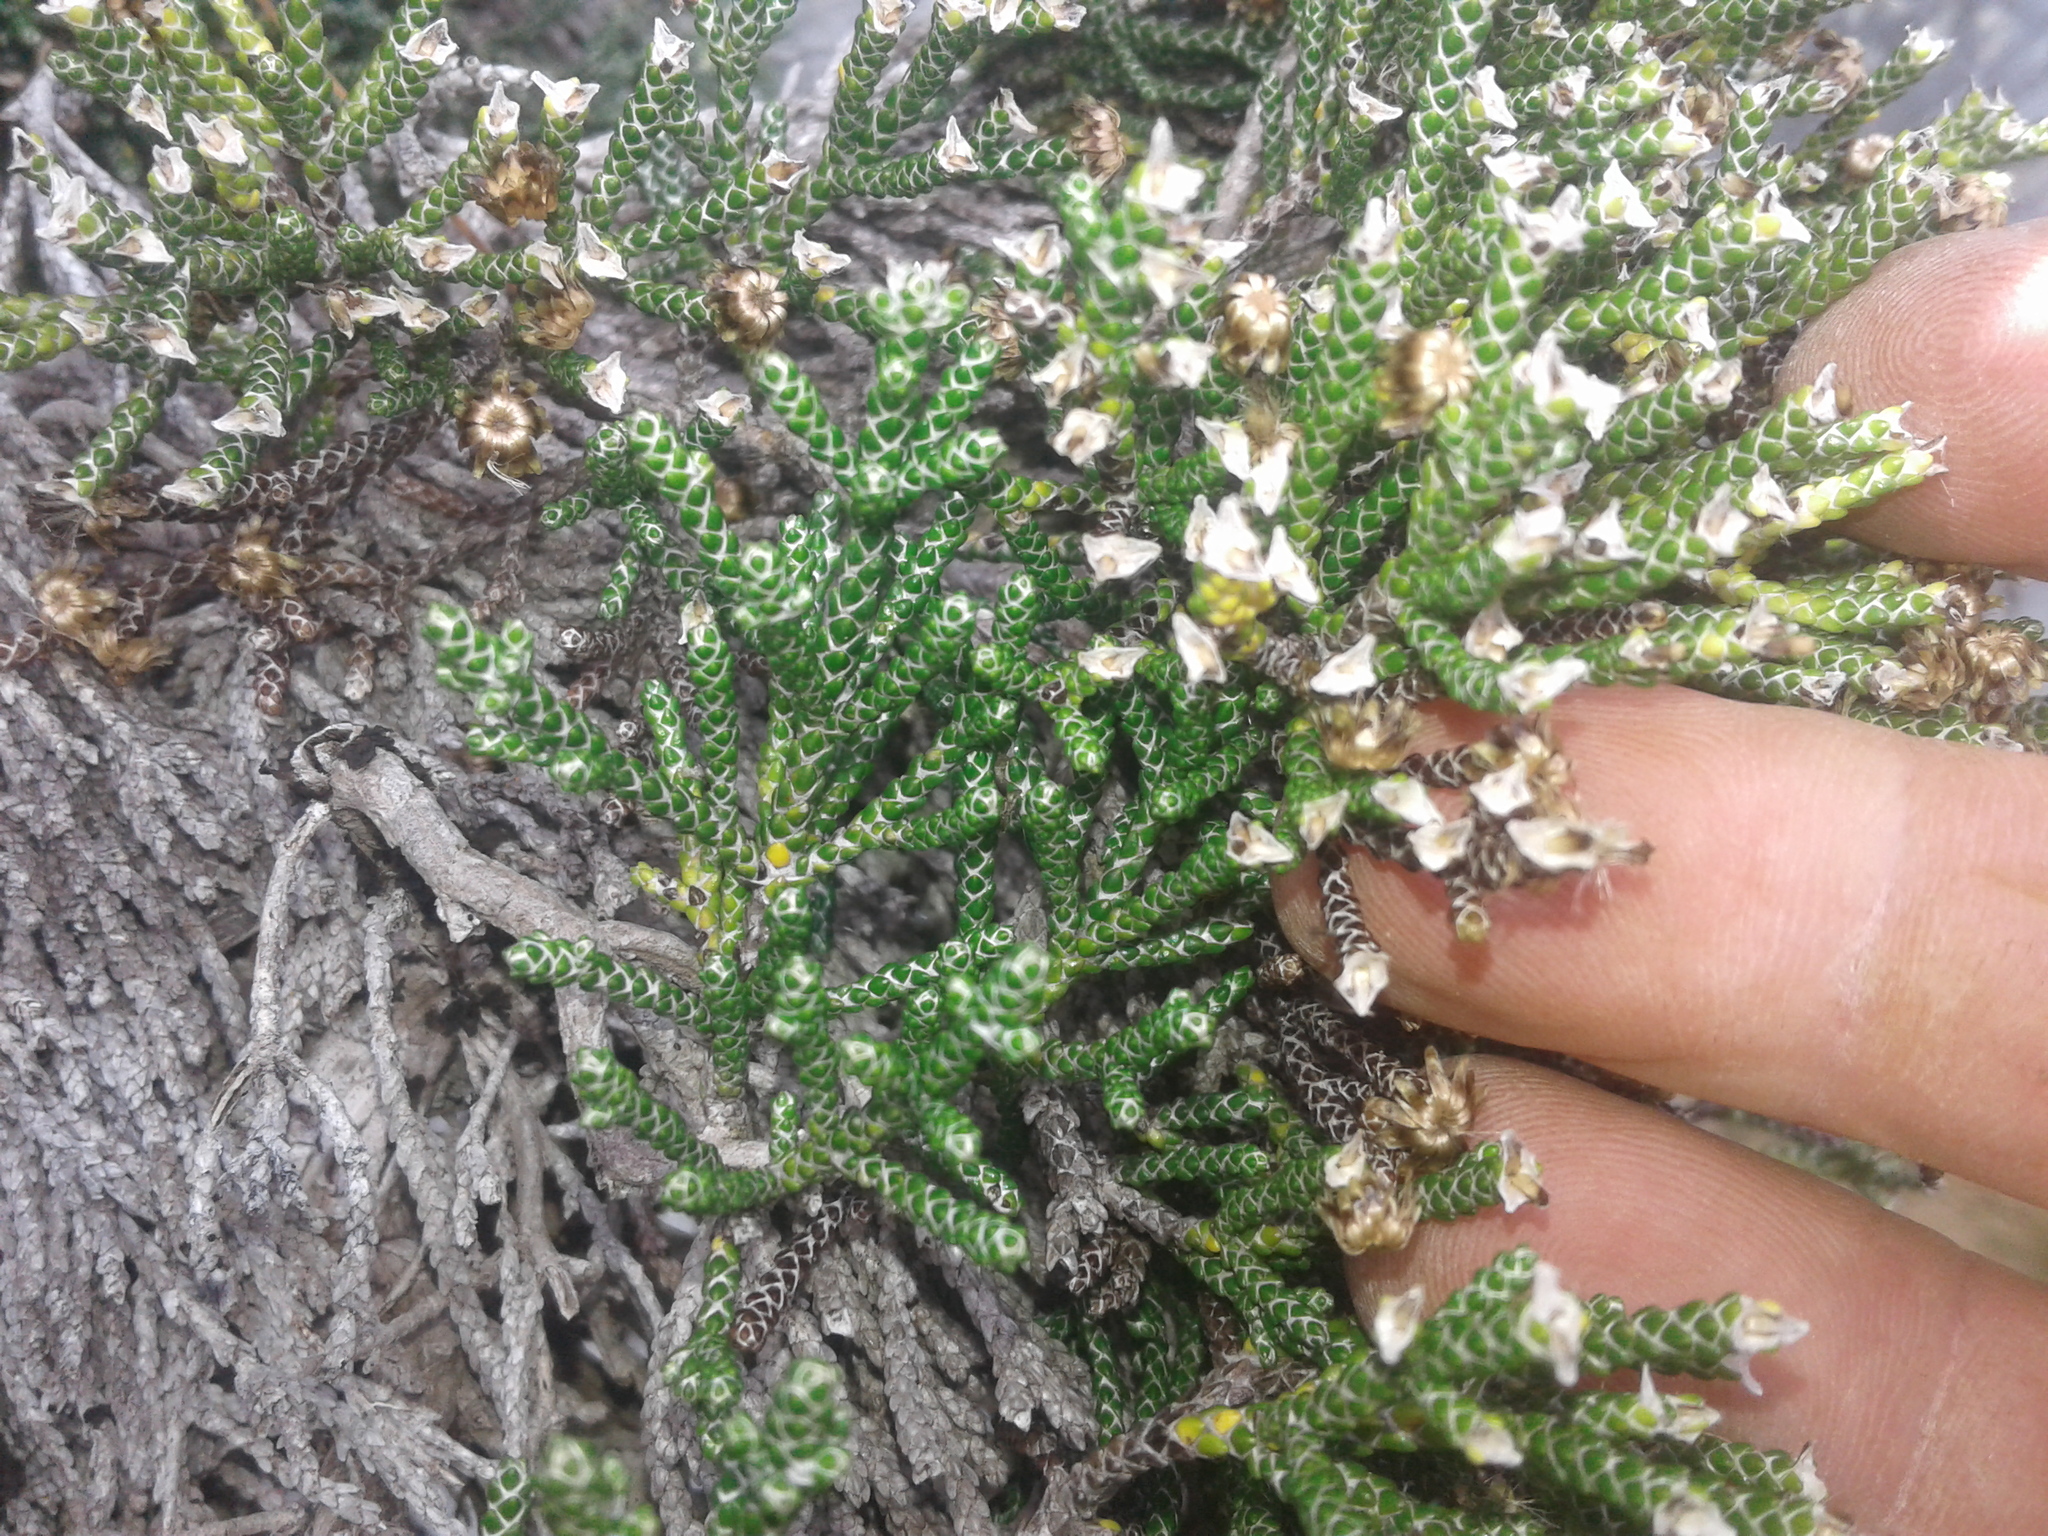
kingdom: Plantae
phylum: Tracheophyta
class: Magnoliopsida
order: Asterales
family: Asteraceae
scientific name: Asteraceae
